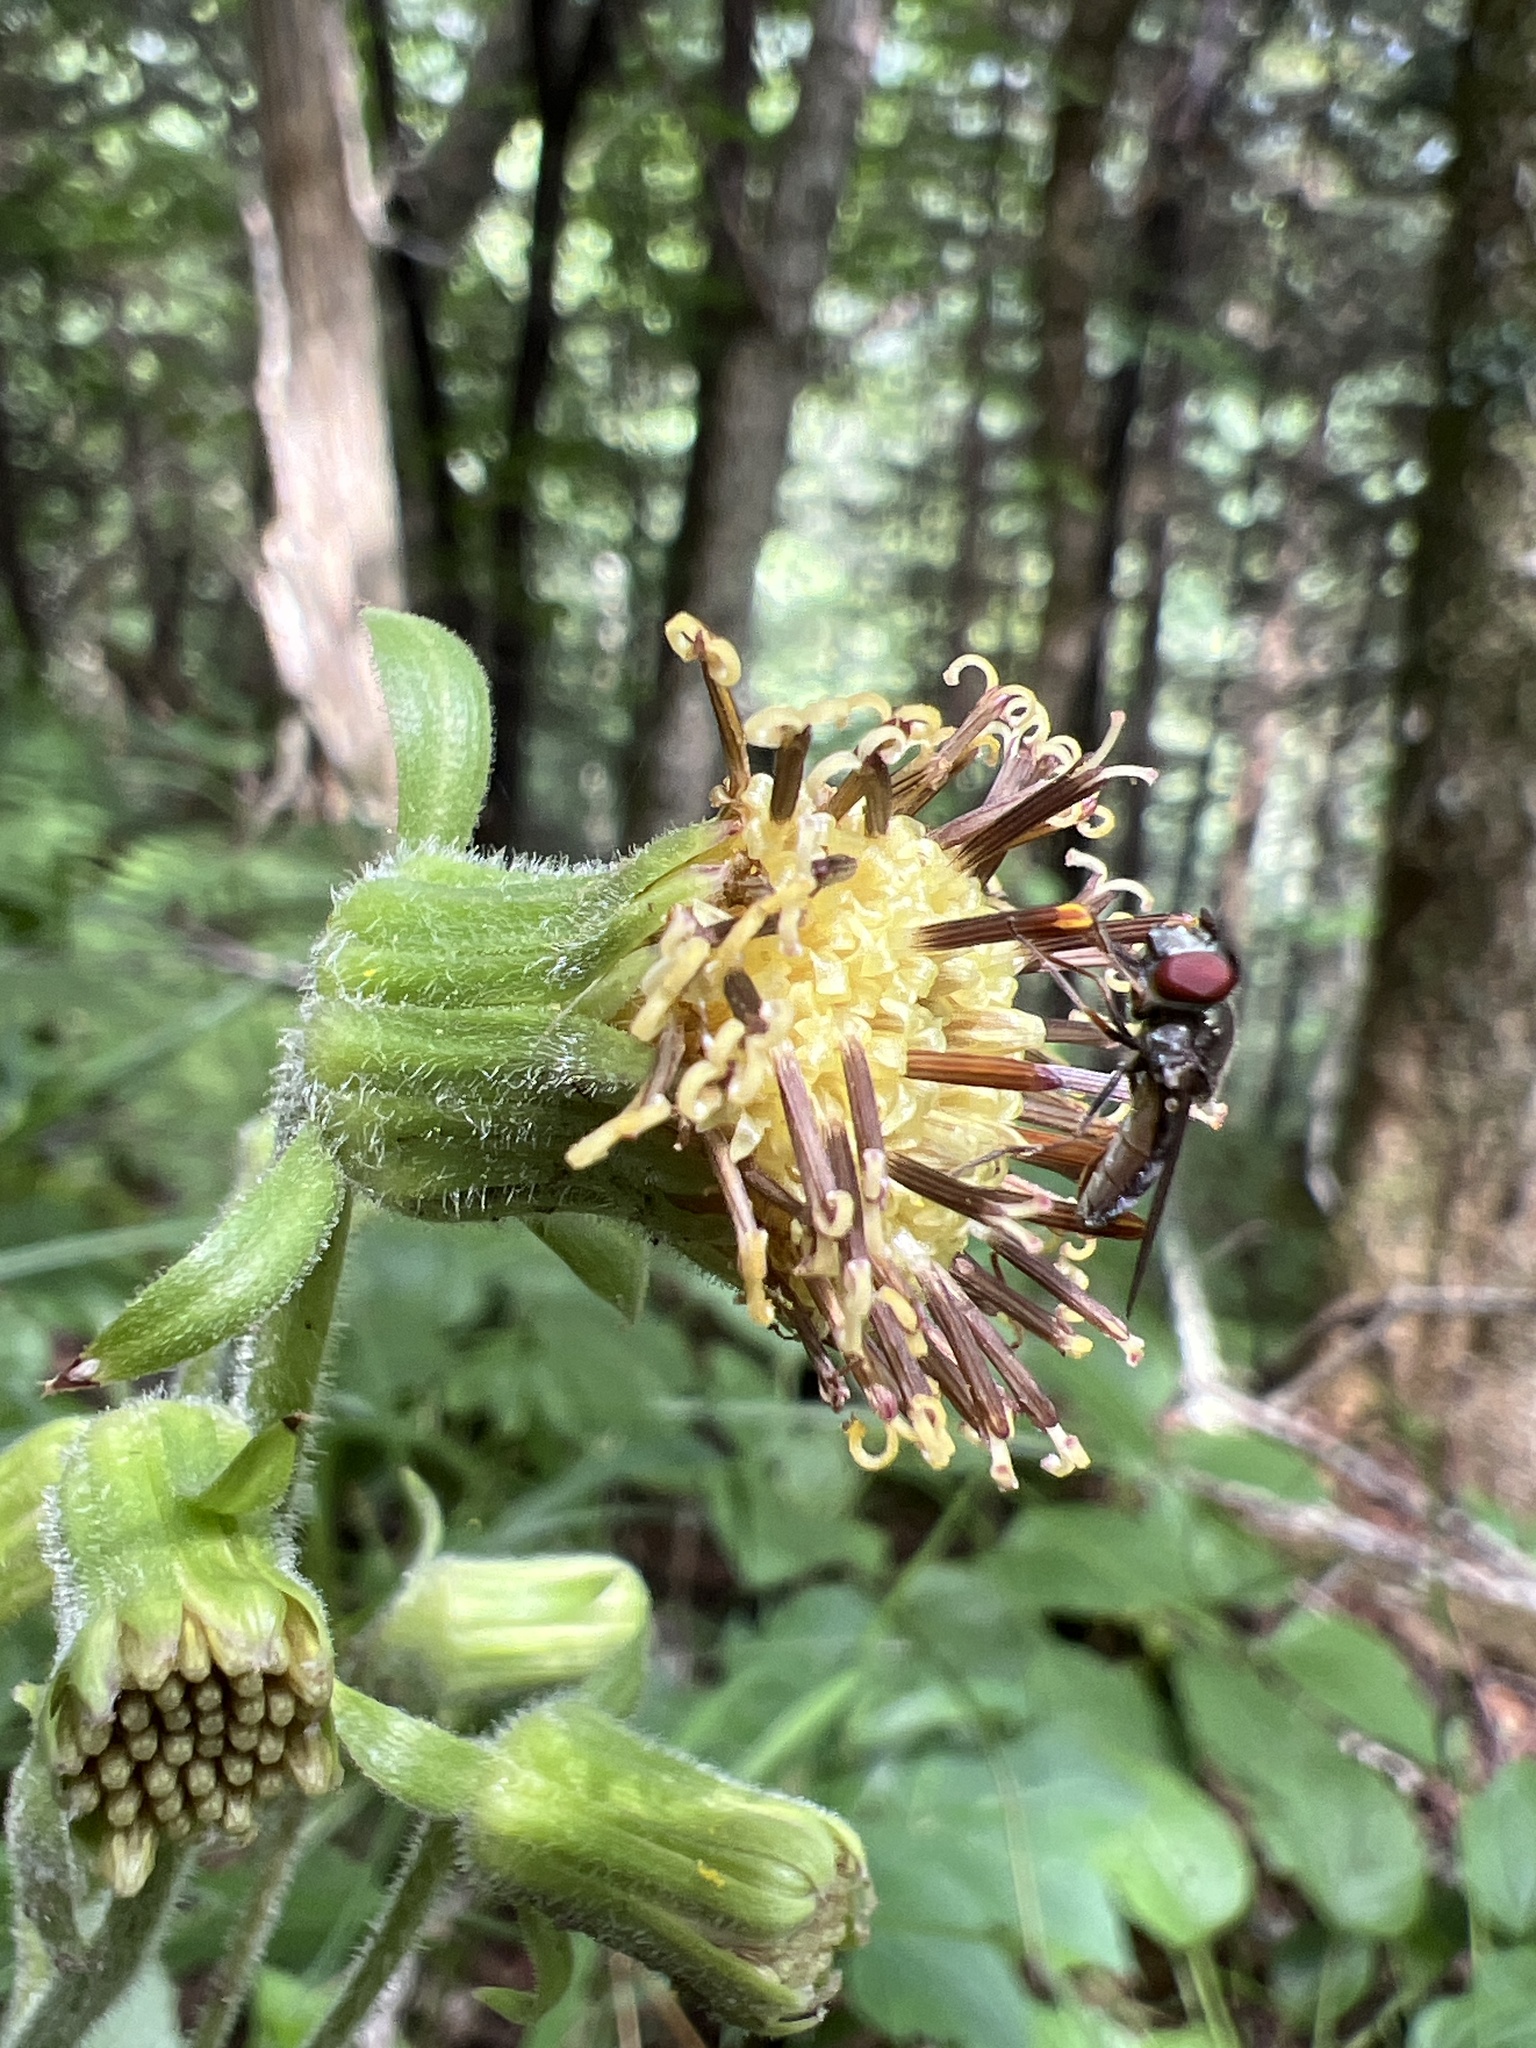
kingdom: Plantae
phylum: Tracheophyta
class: Magnoliopsida
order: Asterales
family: Asteraceae
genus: Rugelia
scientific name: Rugelia nudicaulis
